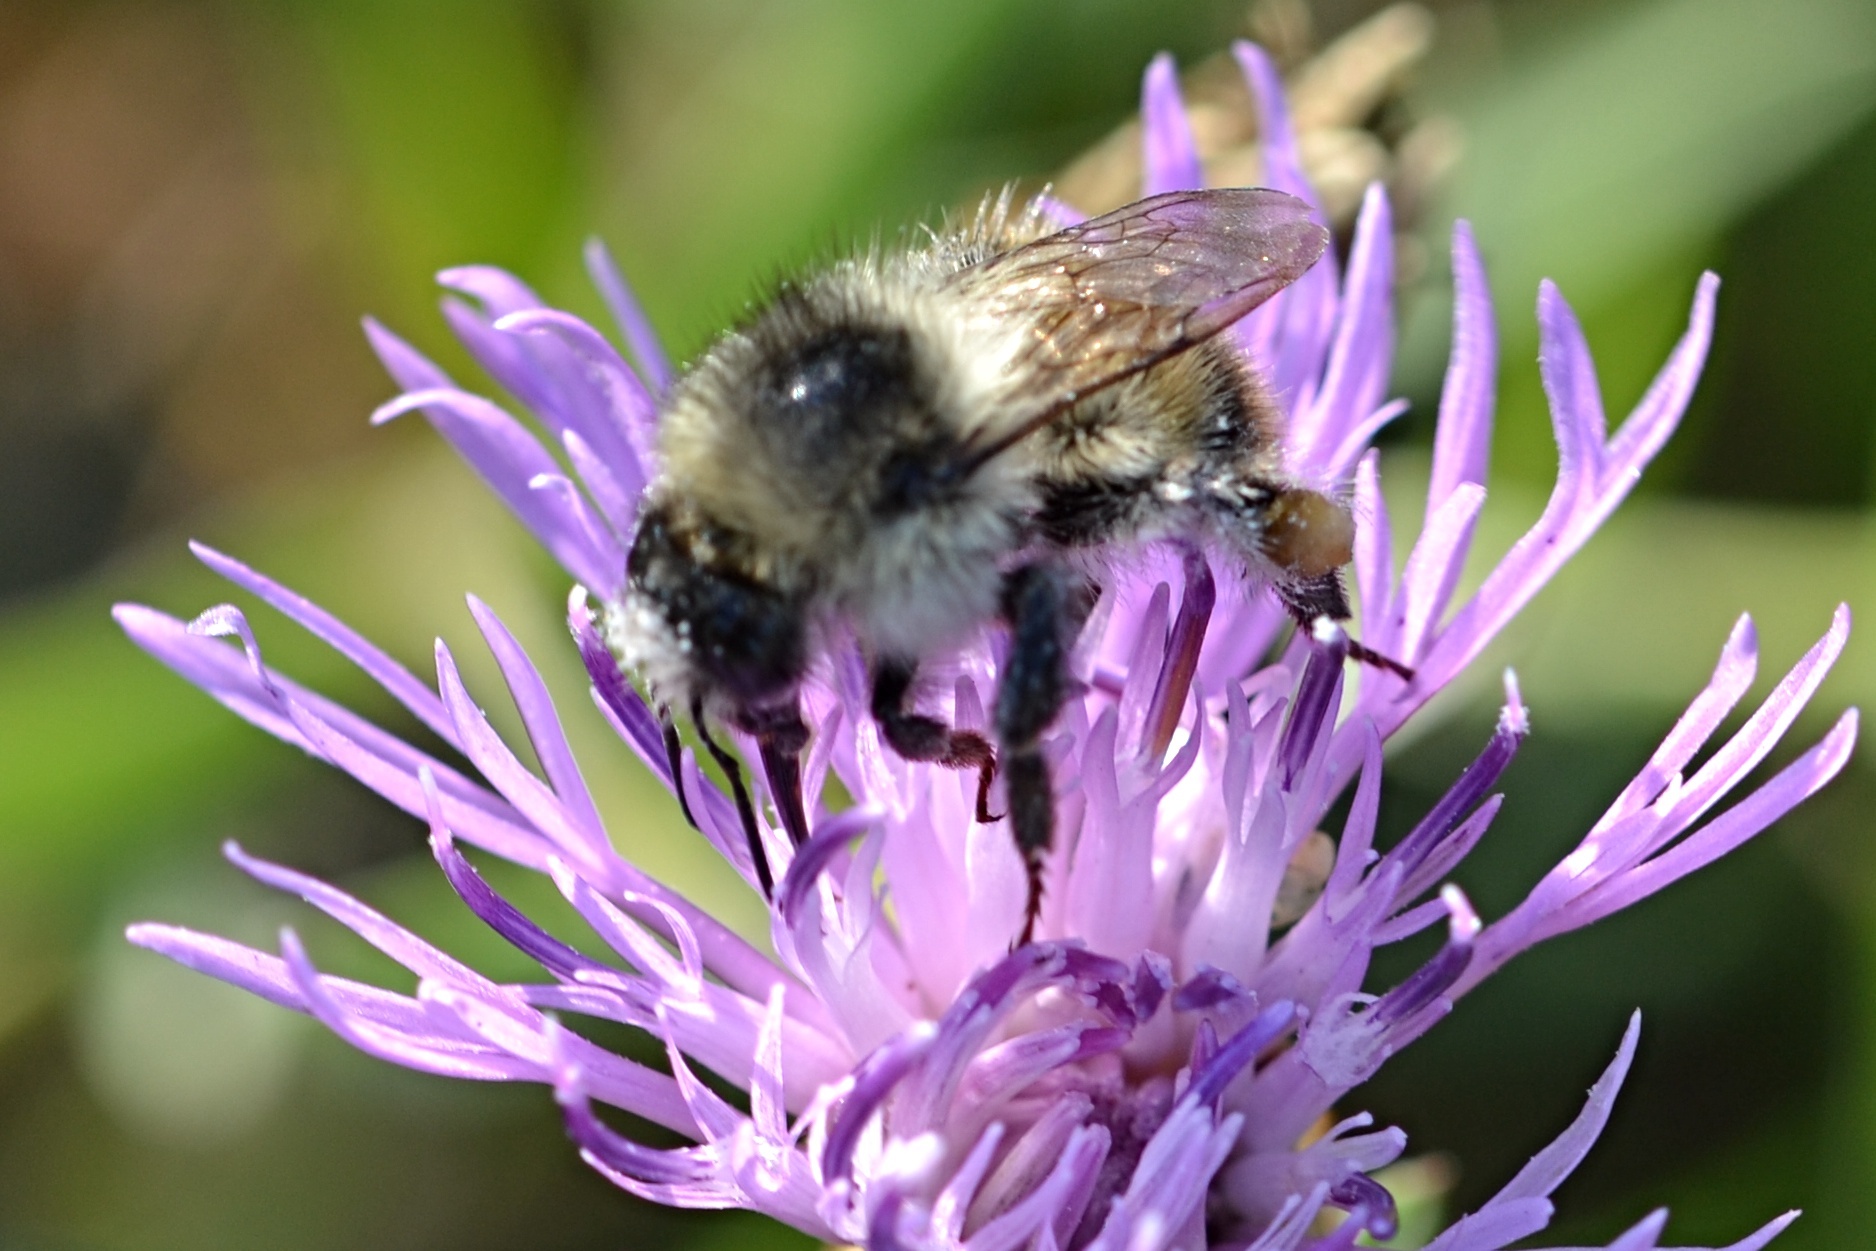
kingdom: Animalia
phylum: Arthropoda
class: Insecta
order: Hymenoptera
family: Apidae
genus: Bombus
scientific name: Bombus sylvarum
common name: Shrill carder bee
